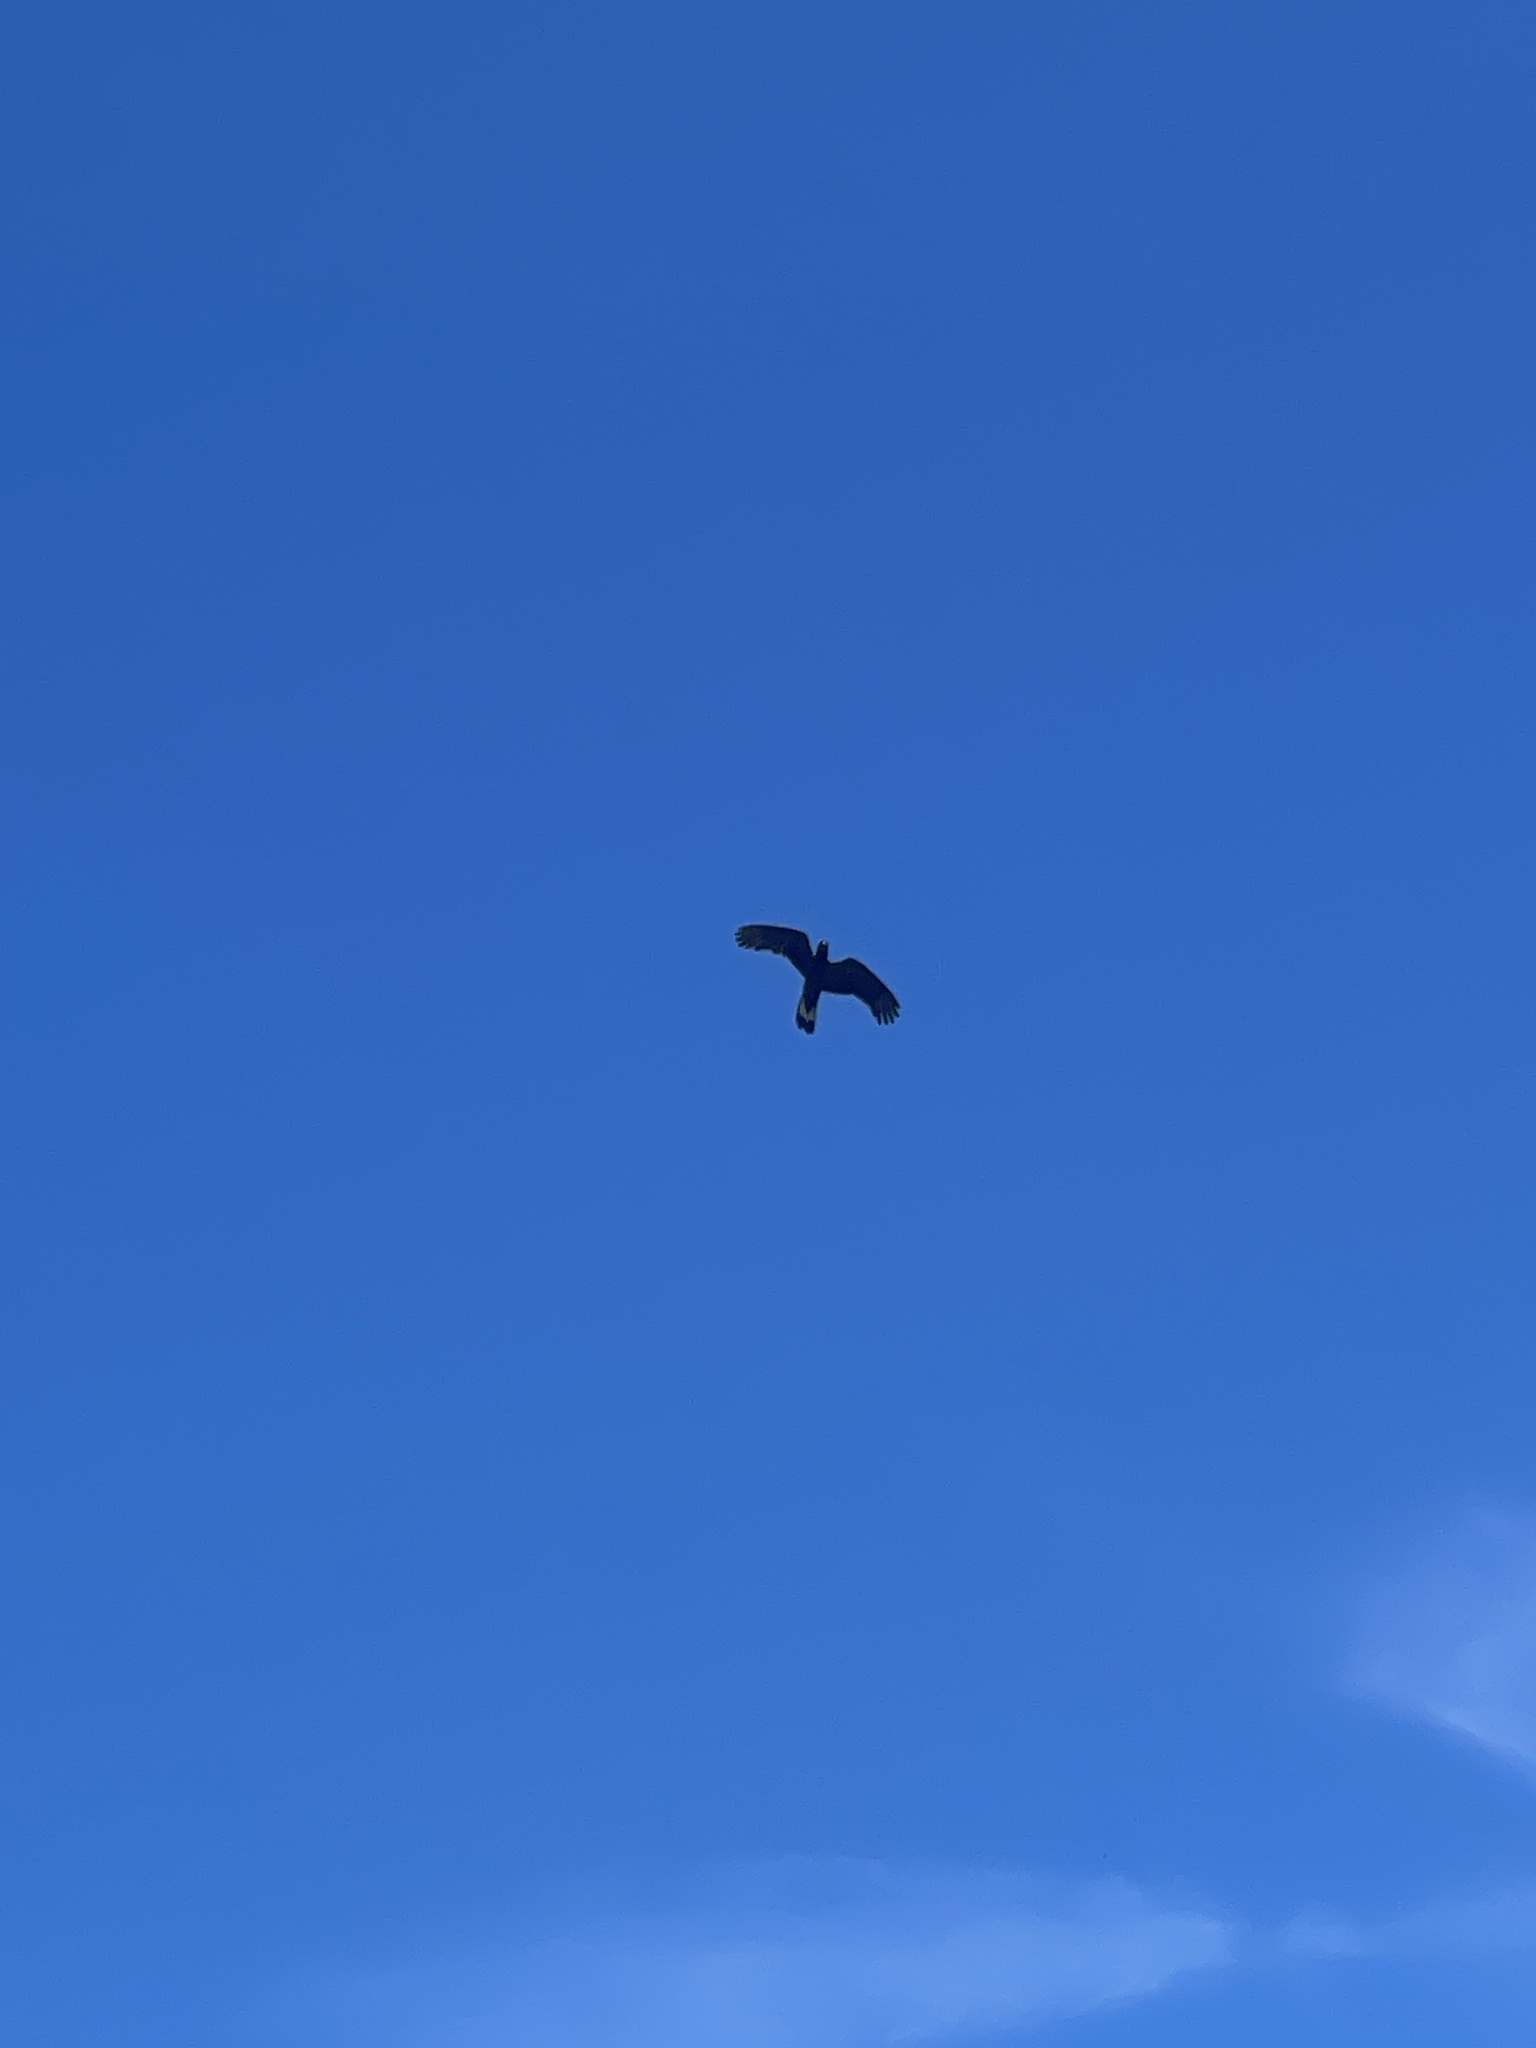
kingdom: Animalia
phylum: Chordata
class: Aves
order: Psittaciformes
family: Cacatuidae
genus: Zanda
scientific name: Zanda funerea
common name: Yellow-tailed black-cockatoo
